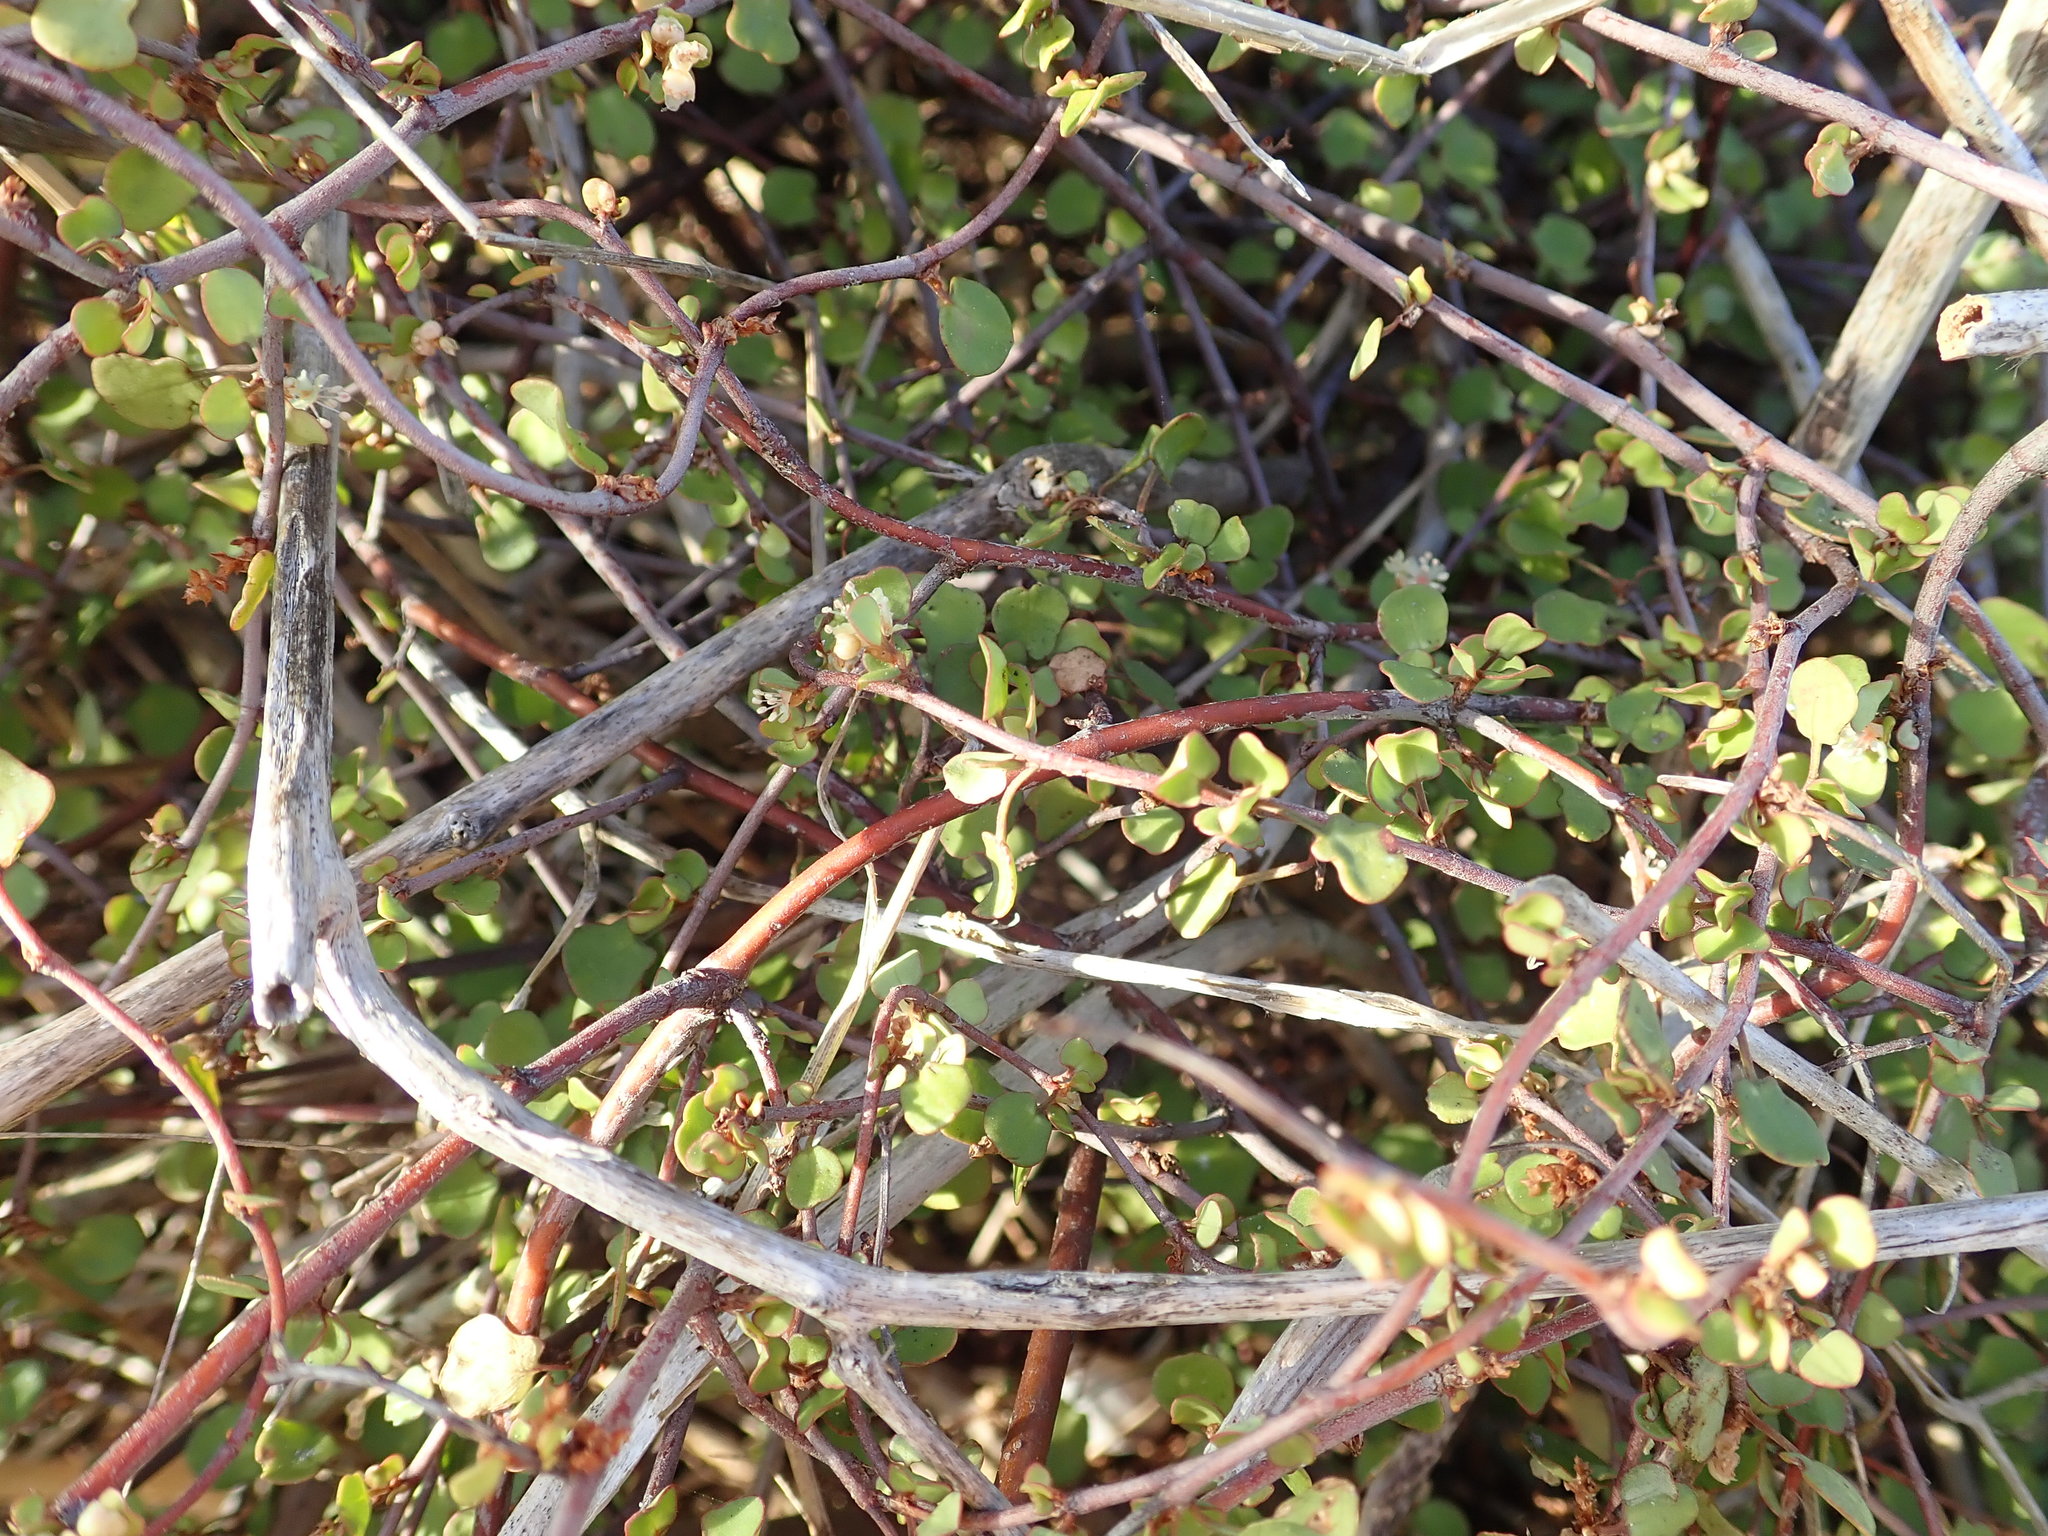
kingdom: Plantae
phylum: Tracheophyta
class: Magnoliopsida
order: Caryophyllales
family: Polygonaceae
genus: Muehlenbeckia
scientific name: Muehlenbeckia complexa
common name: Wireplant
